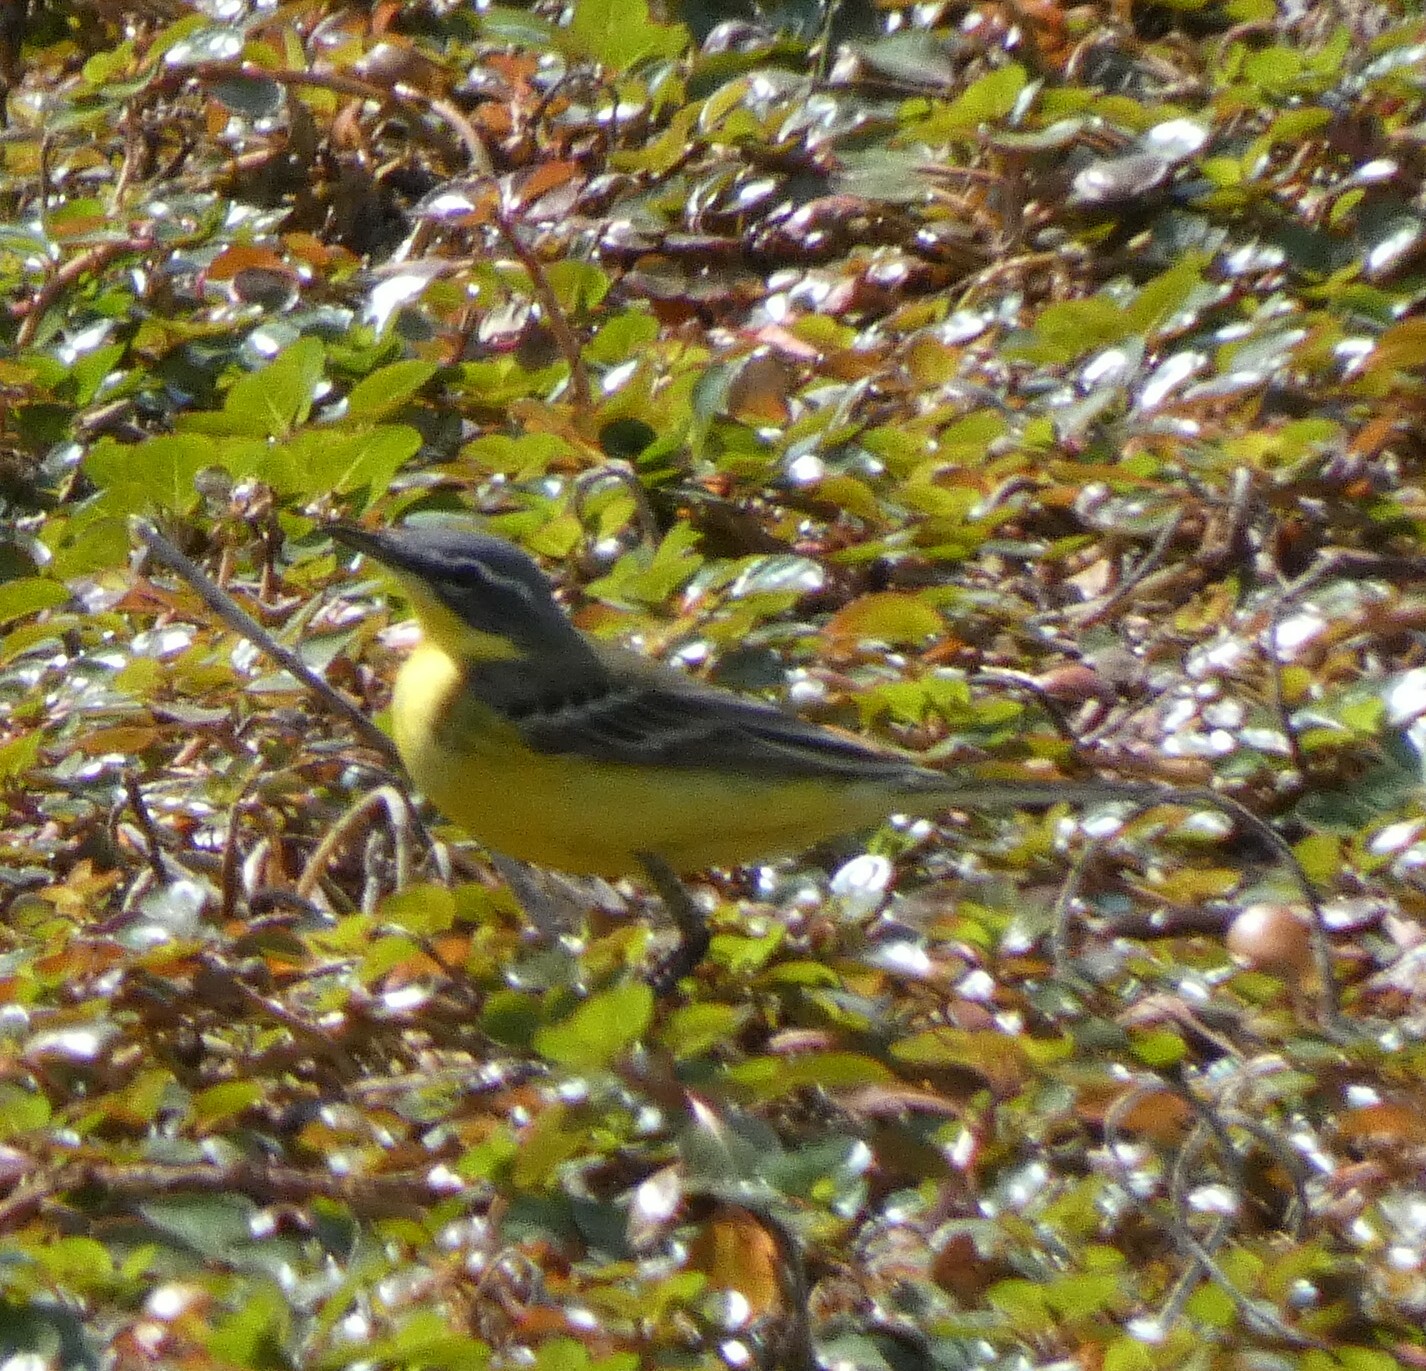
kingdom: Animalia
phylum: Chordata
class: Aves
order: Passeriformes
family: Motacillidae
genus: Motacilla
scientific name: Motacilla flava
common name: Western yellow wagtail
